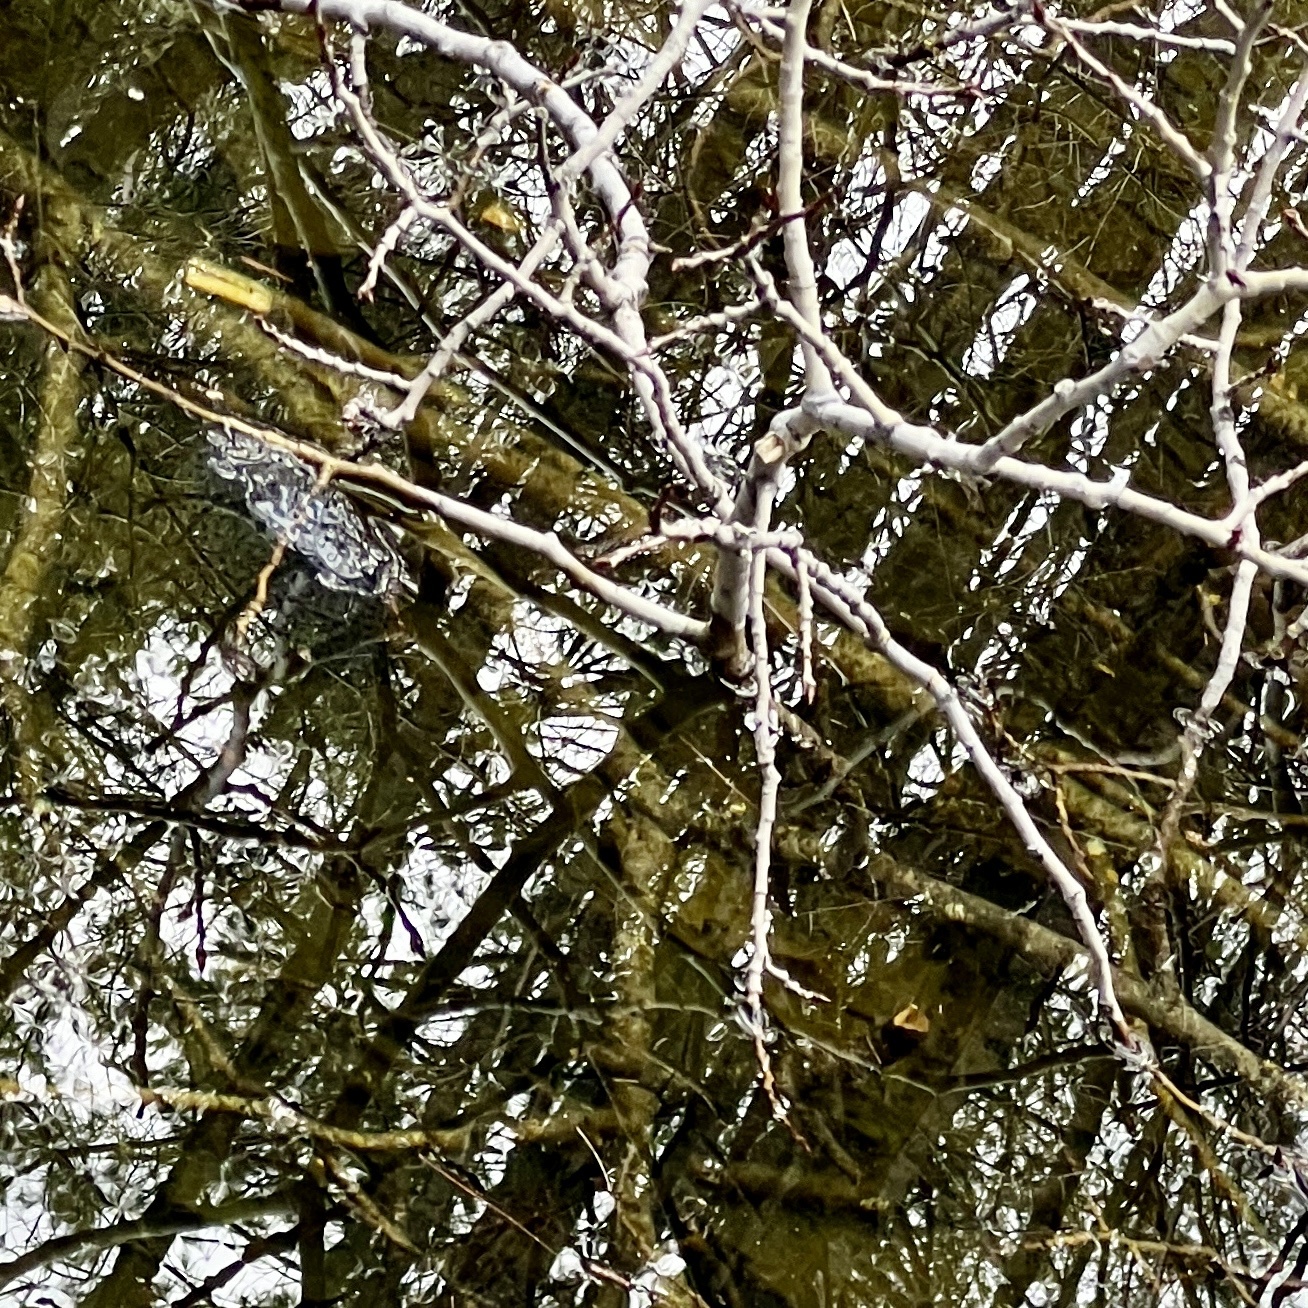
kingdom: Animalia
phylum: Chordata
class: Amphibia
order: Anura
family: Ranidae
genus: Lithobates
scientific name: Lithobates sylvaticus
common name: Wood frog
